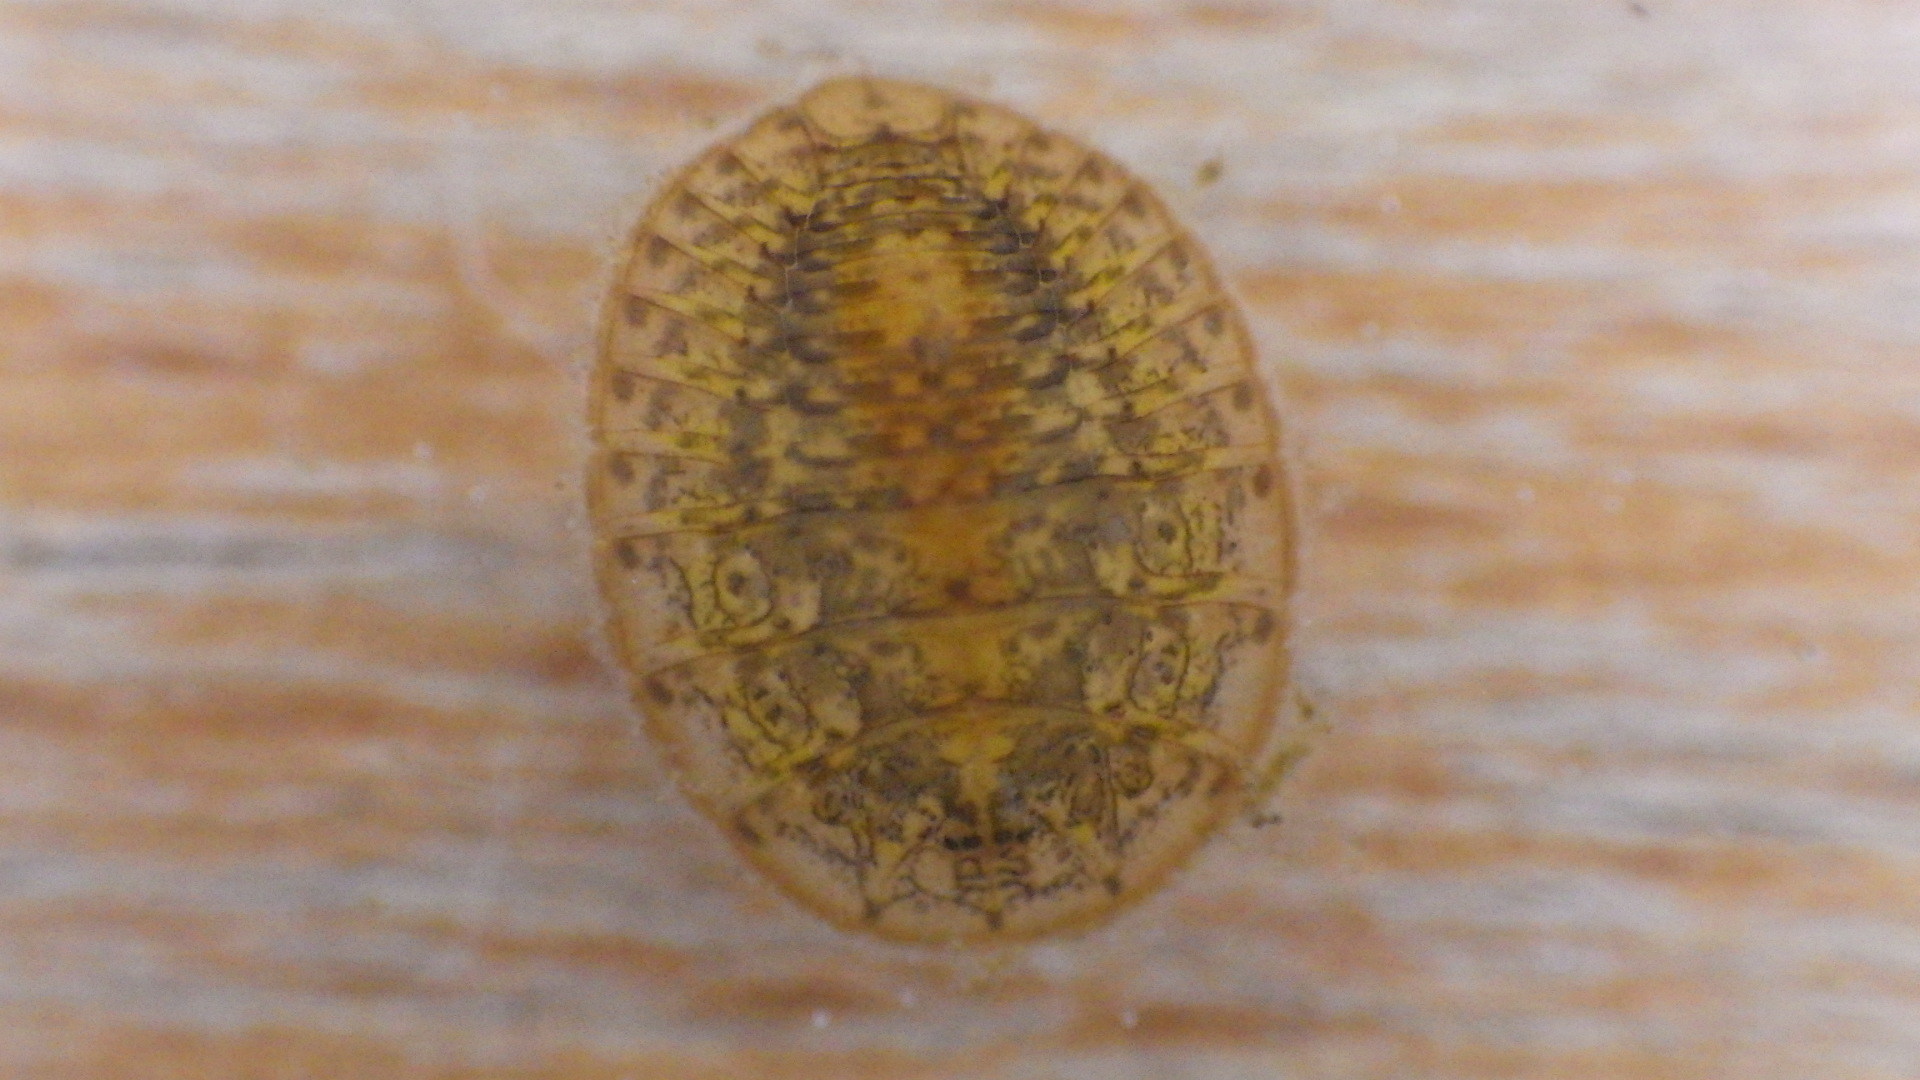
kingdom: Animalia
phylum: Arthropoda
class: Insecta
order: Coleoptera
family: Psephenidae
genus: Psephenus
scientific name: Psephenus herricki
